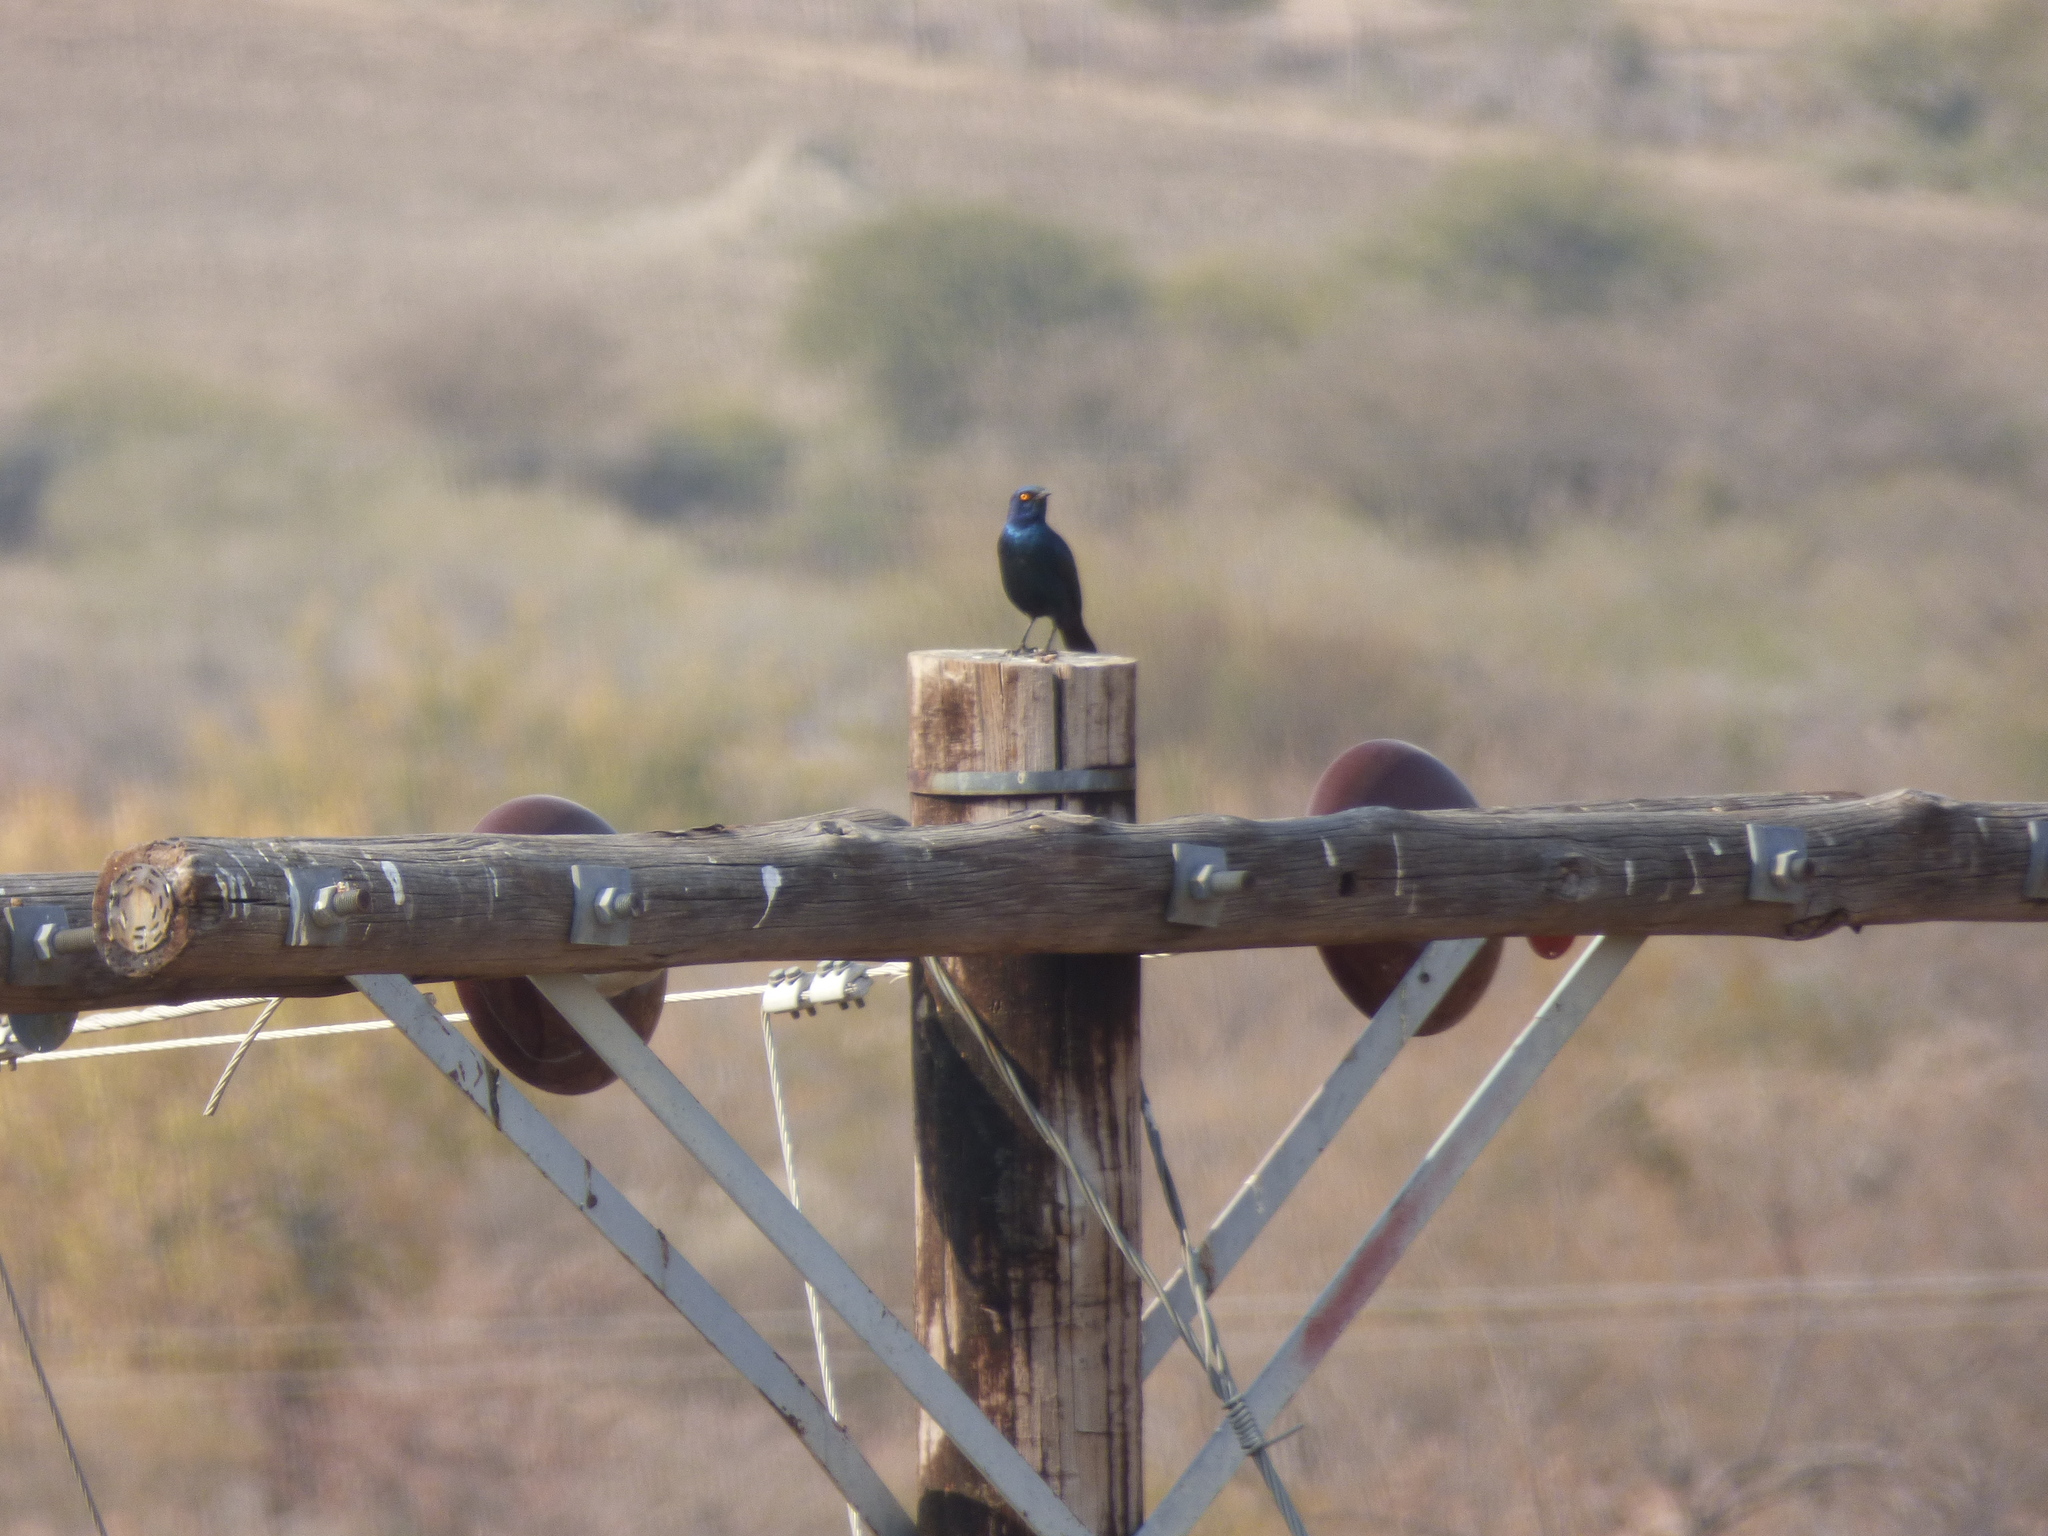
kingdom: Animalia
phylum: Chordata
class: Aves
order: Passeriformes
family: Sturnidae
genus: Lamprotornis
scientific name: Lamprotornis nitens
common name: Cape starling
